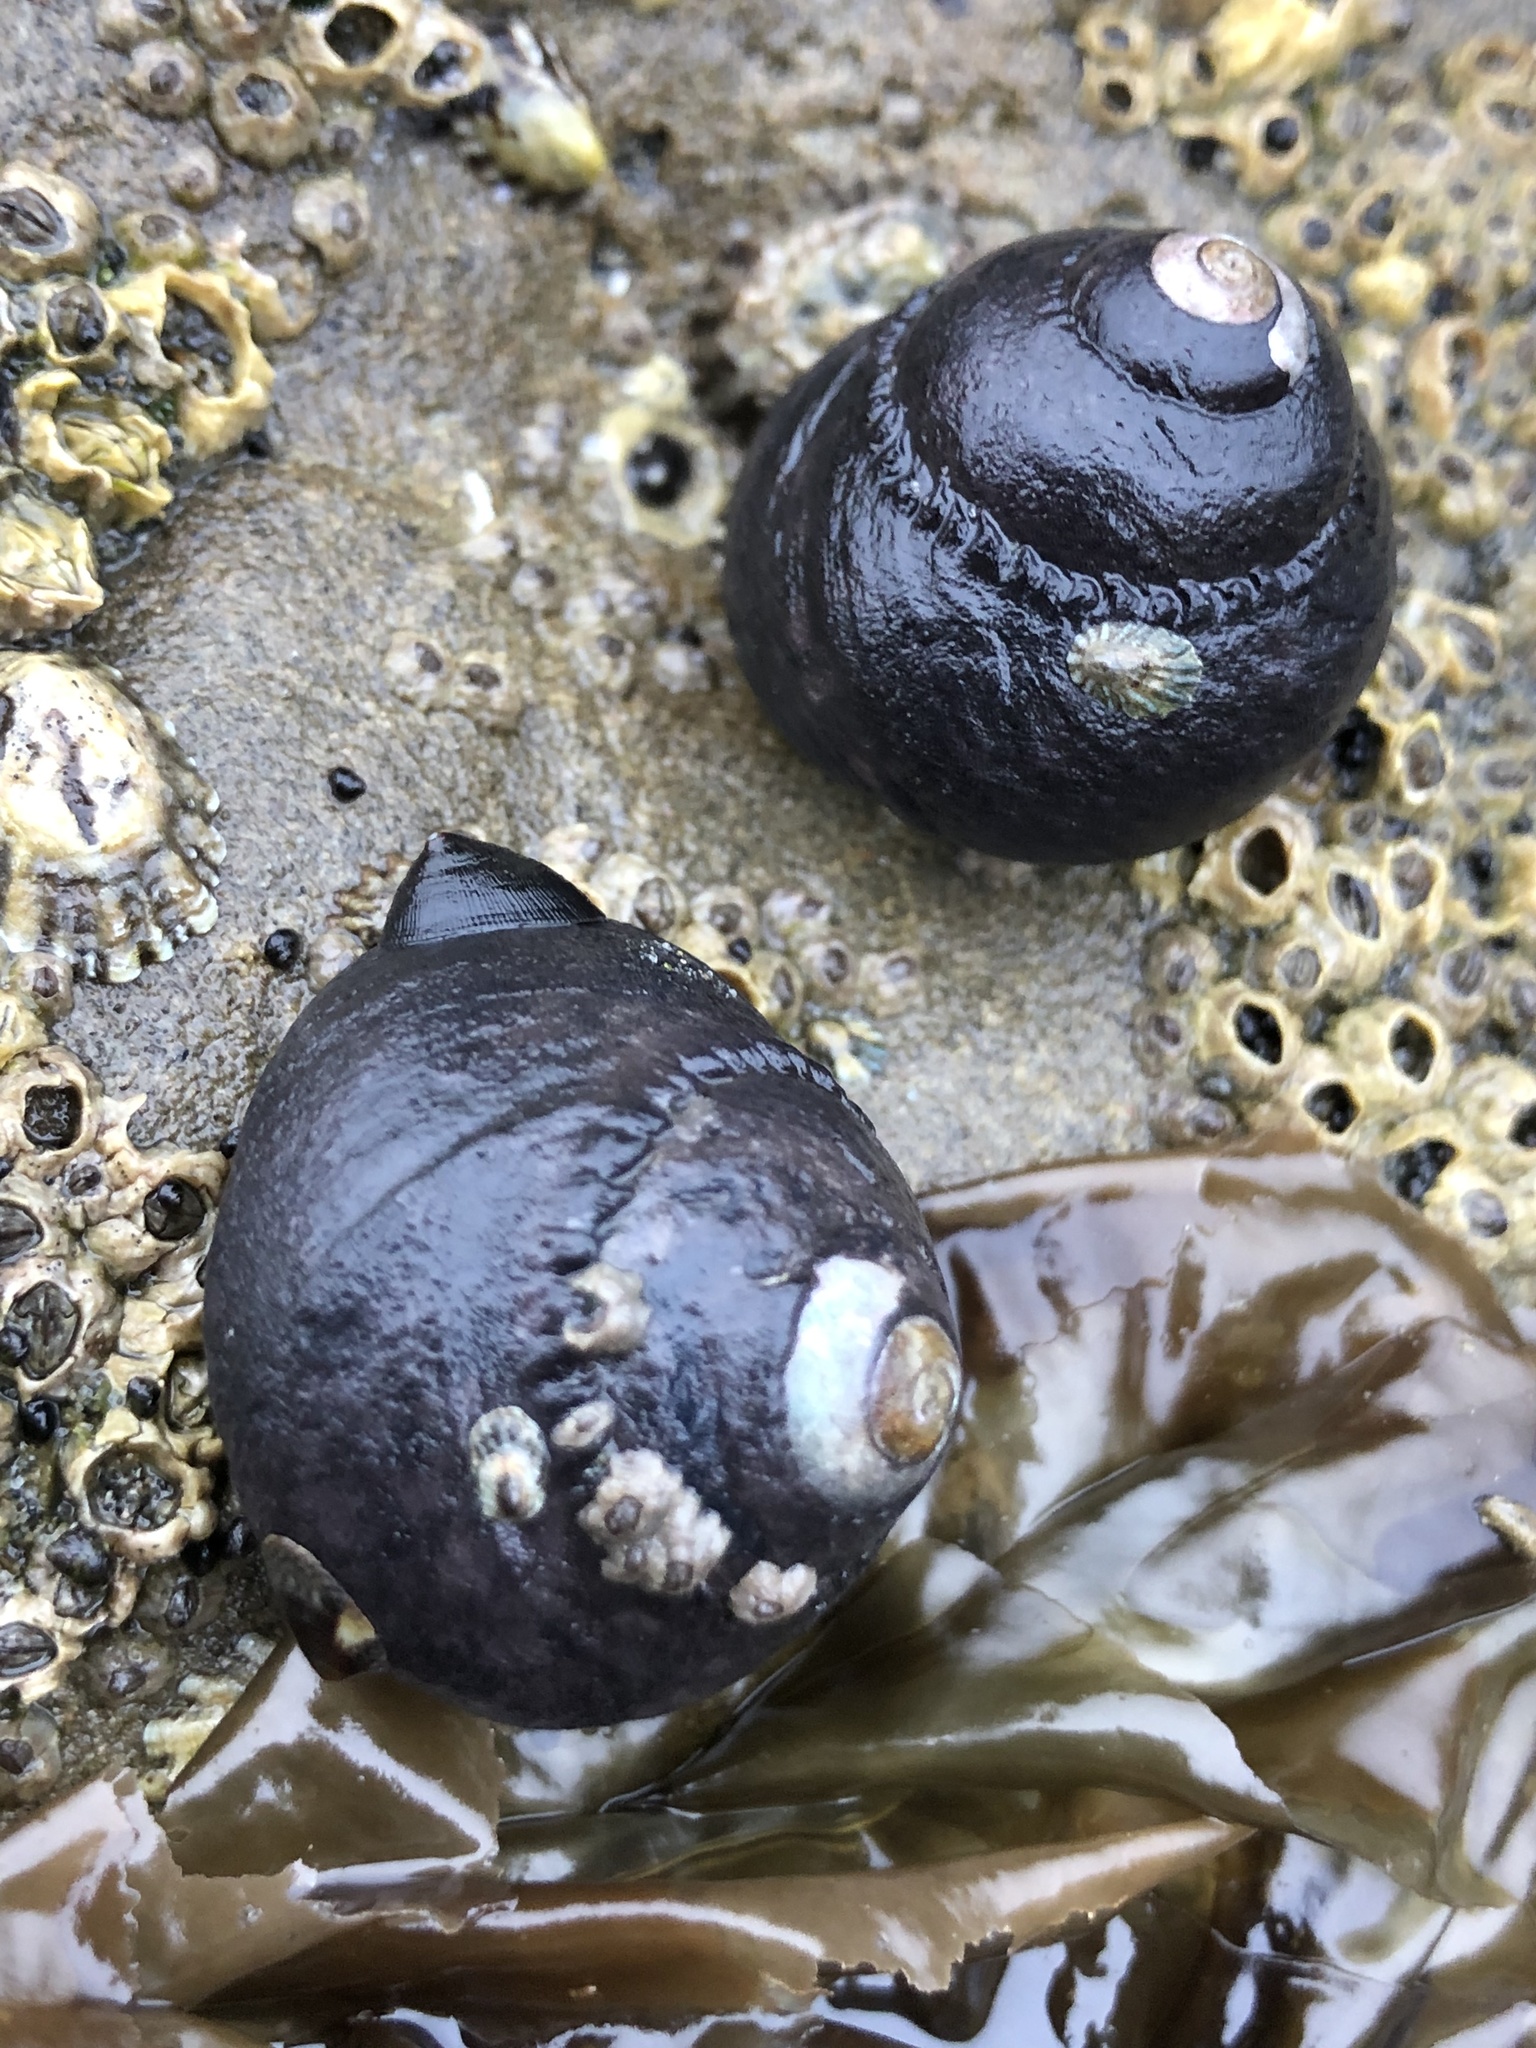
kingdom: Animalia
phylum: Mollusca
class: Gastropoda
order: Trochida
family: Tegulidae
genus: Tegula
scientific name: Tegula funebralis
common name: Black tegula
